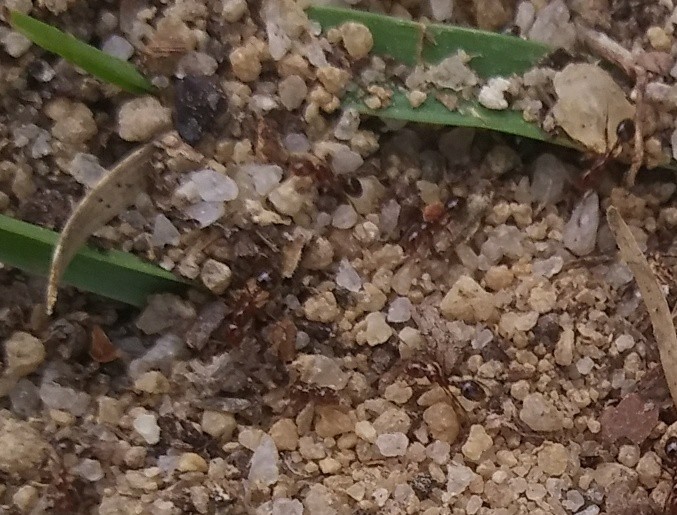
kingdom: Animalia
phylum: Arthropoda
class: Insecta
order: Hymenoptera
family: Formicidae
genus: Solenopsis
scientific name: Solenopsis invicta
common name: Red imported fire ant
